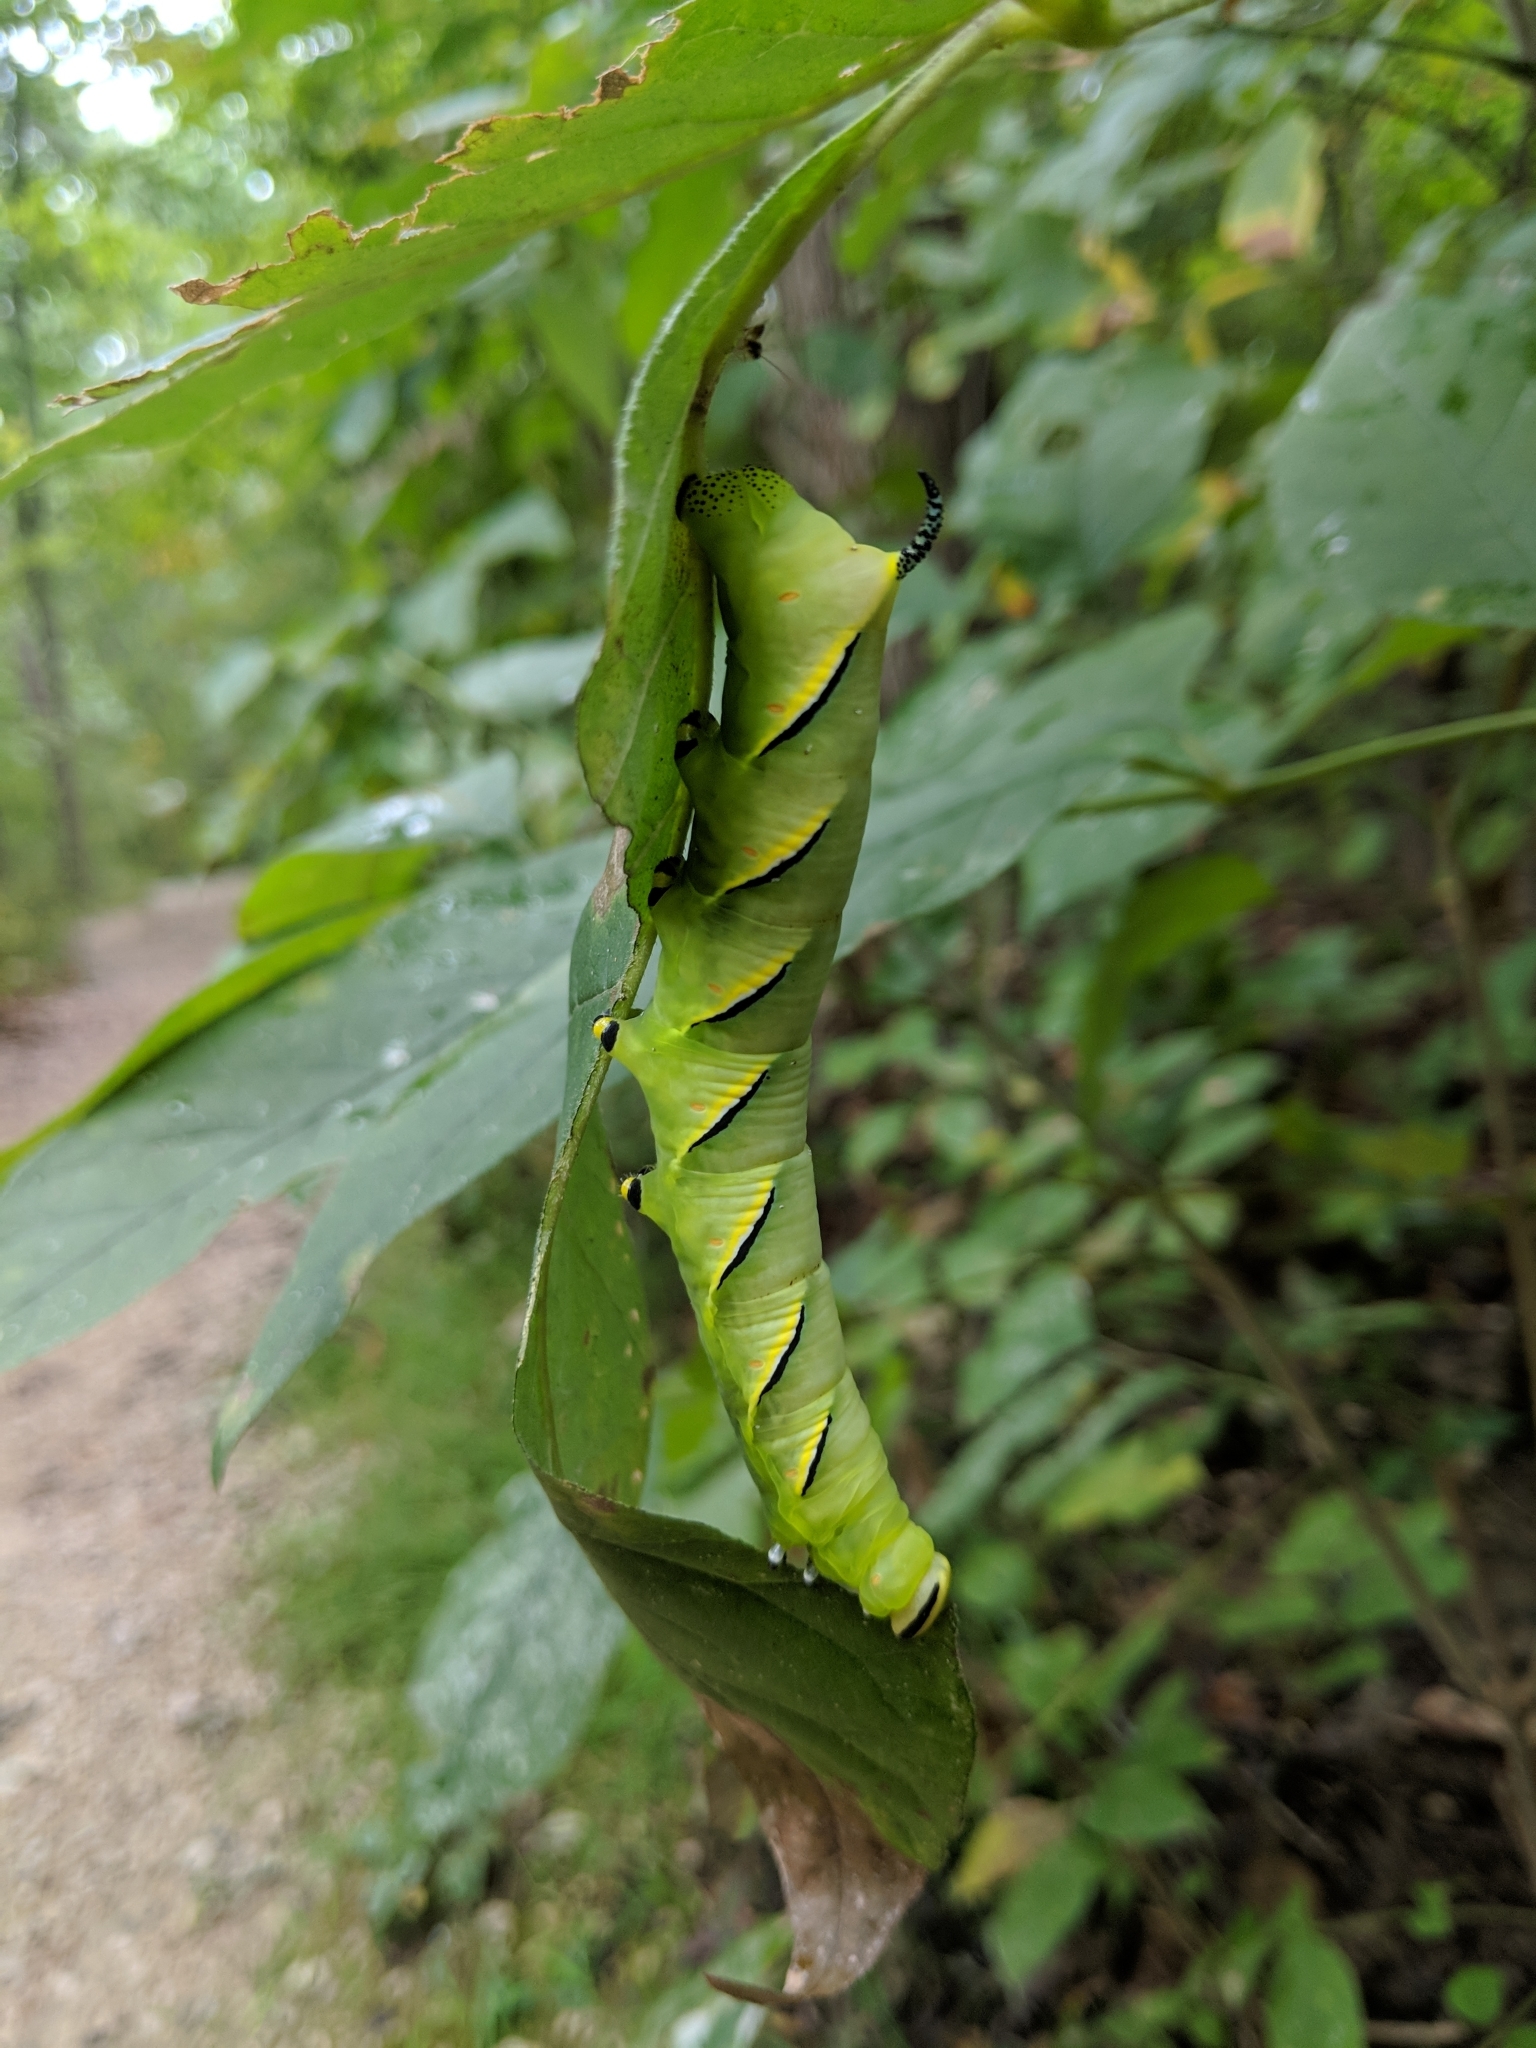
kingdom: Animalia
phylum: Arthropoda
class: Insecta
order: Lepidoptera
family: Sphingidae
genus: Sphinx
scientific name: Sphinx kalmiae
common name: Laurel sphinx
